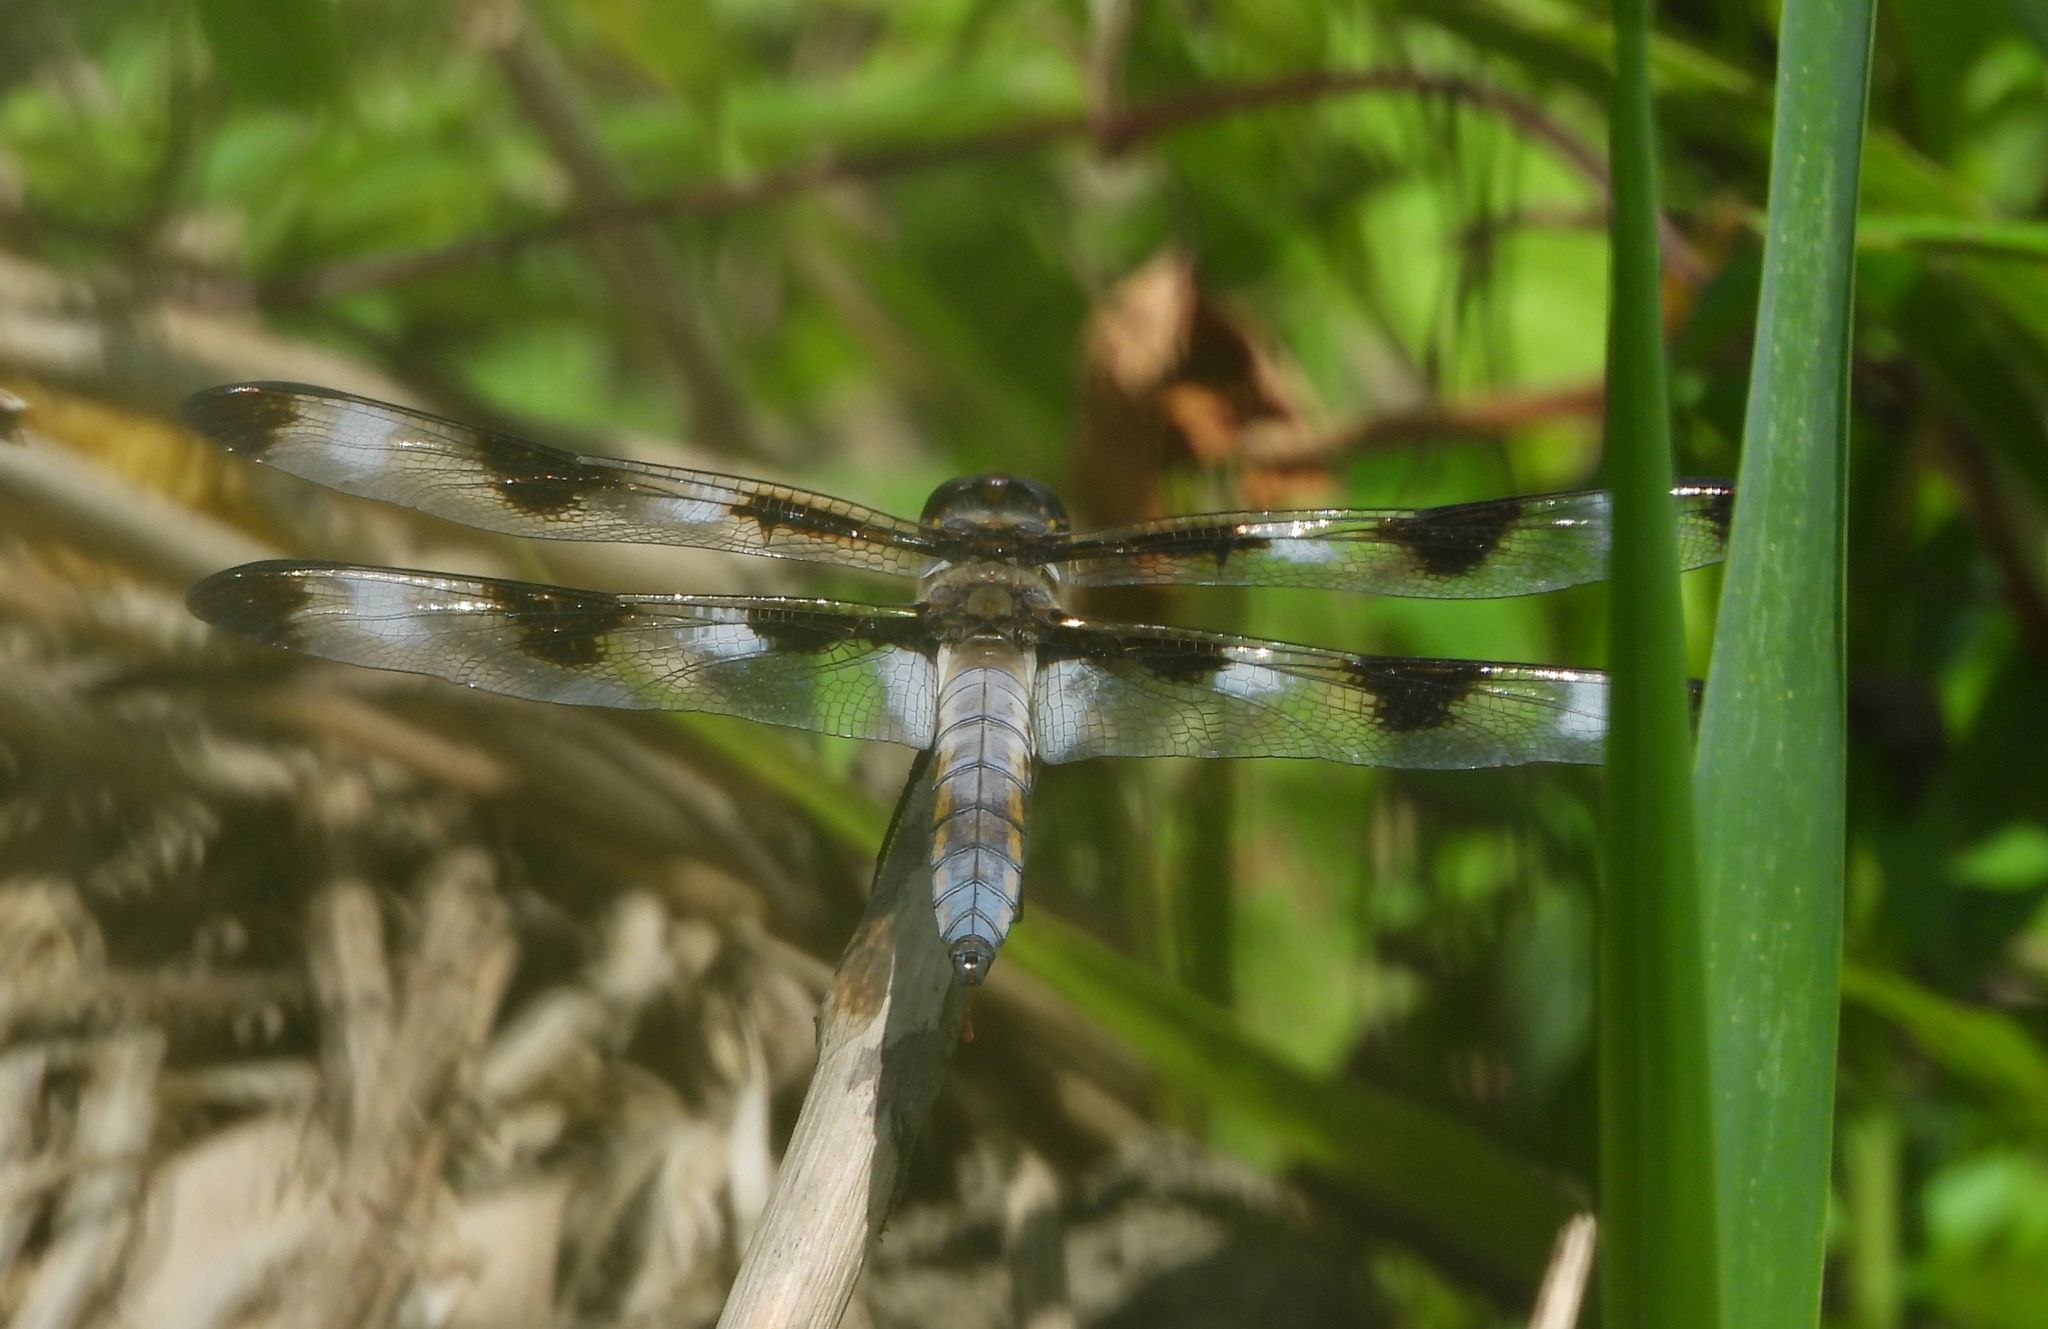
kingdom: Animalia
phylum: Arthropoda
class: Insecta
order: Odonata
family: Libellulidae
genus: Libellula
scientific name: Libellula pulchella
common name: Twelve-spotted skimmer
